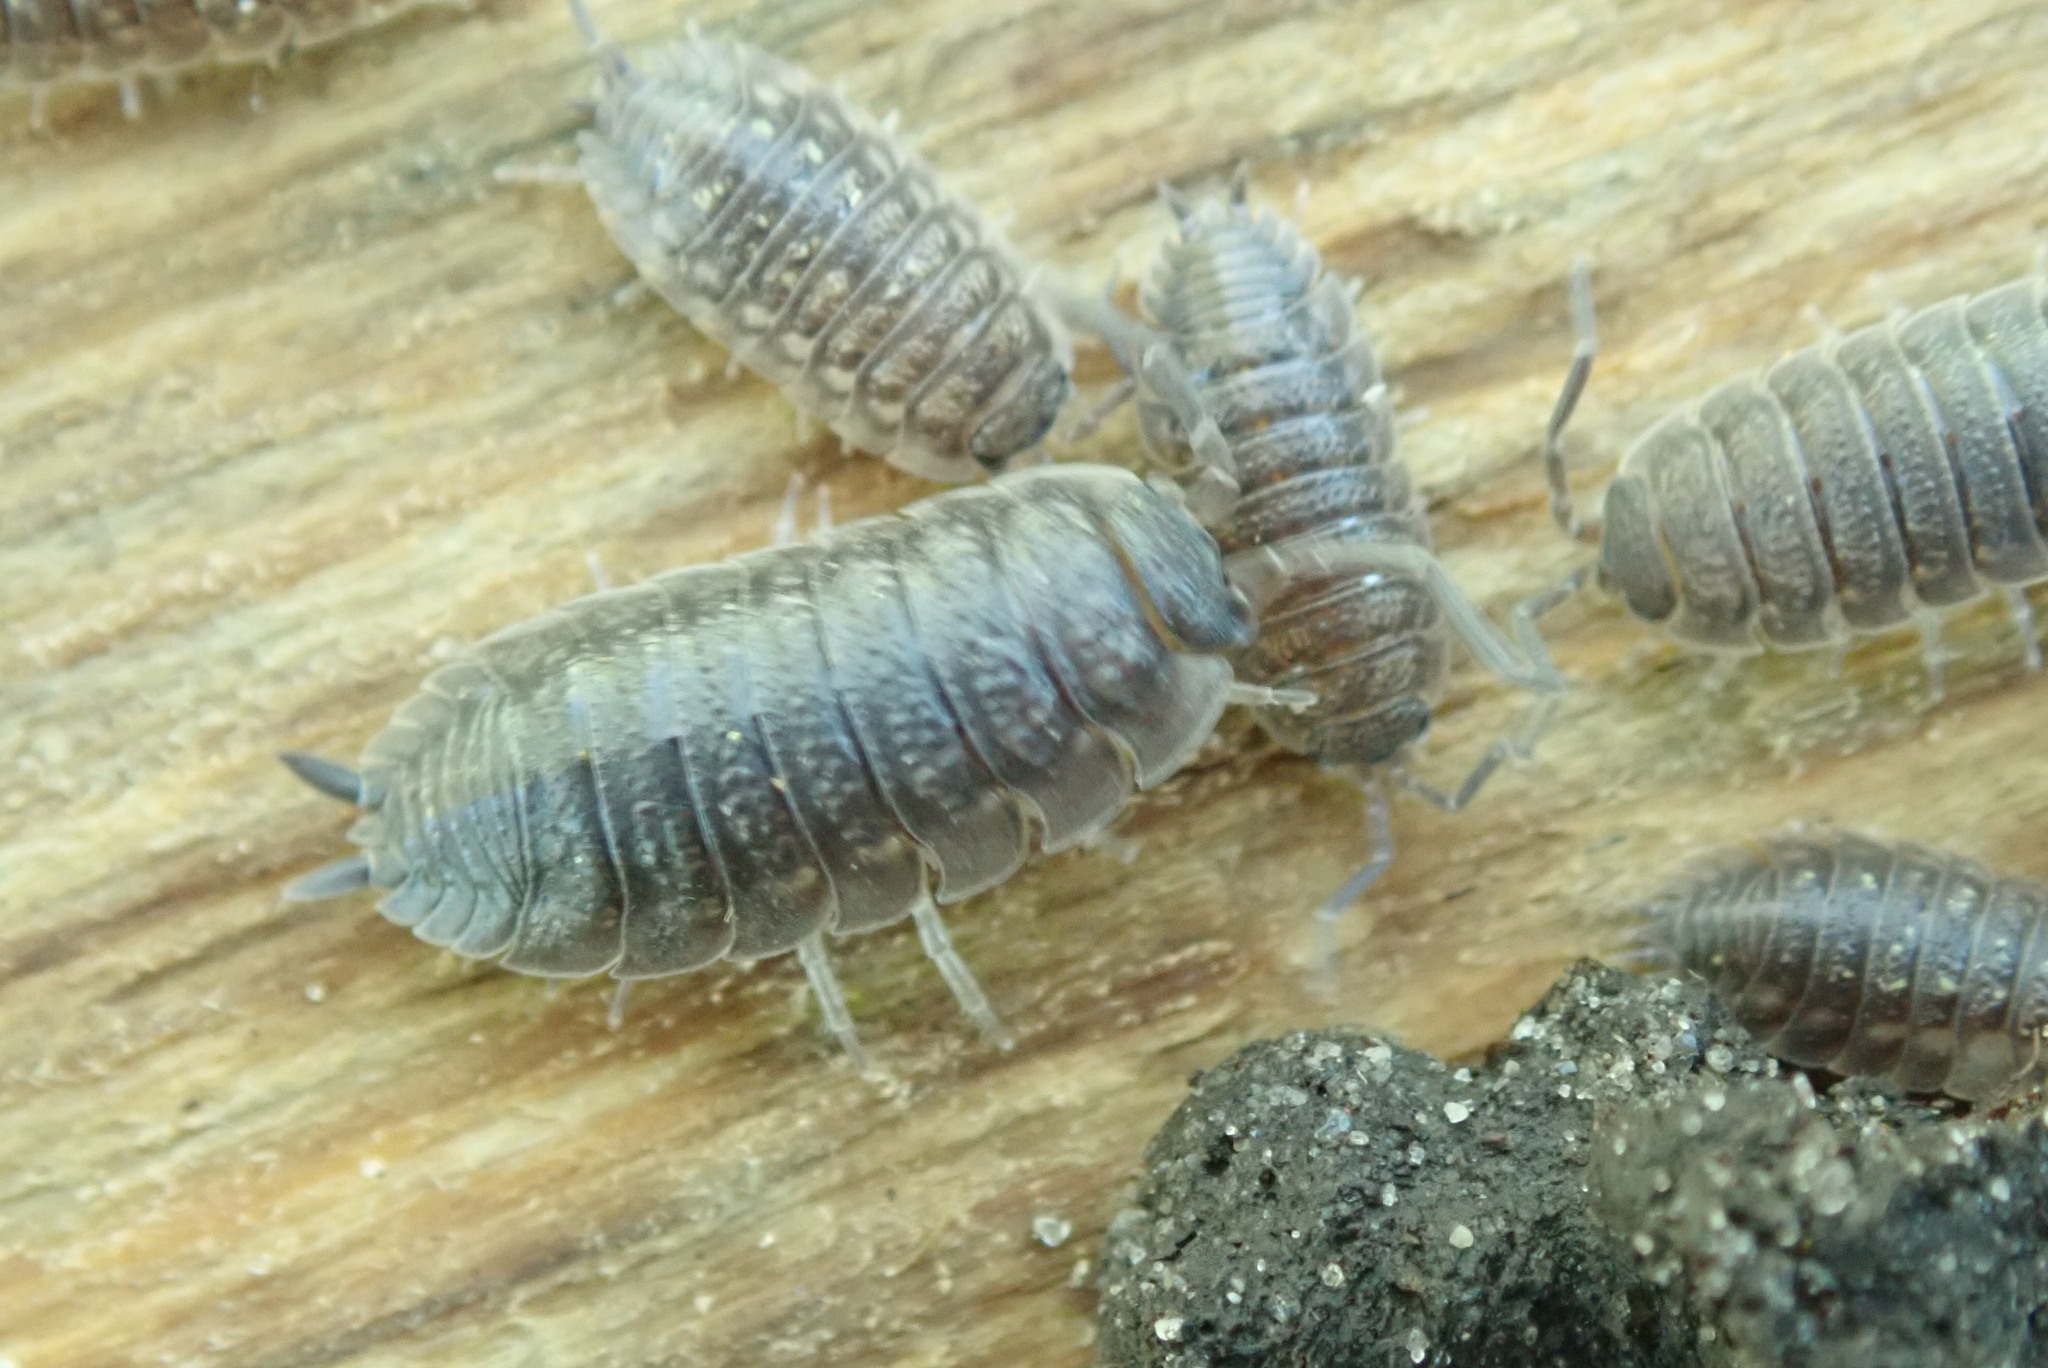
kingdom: Animalia
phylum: Arthropoda
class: Malacostraca
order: Isopoda
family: Porcellionidae
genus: Porcellio
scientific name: Porcellio scaber
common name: Common rough woodlouse
